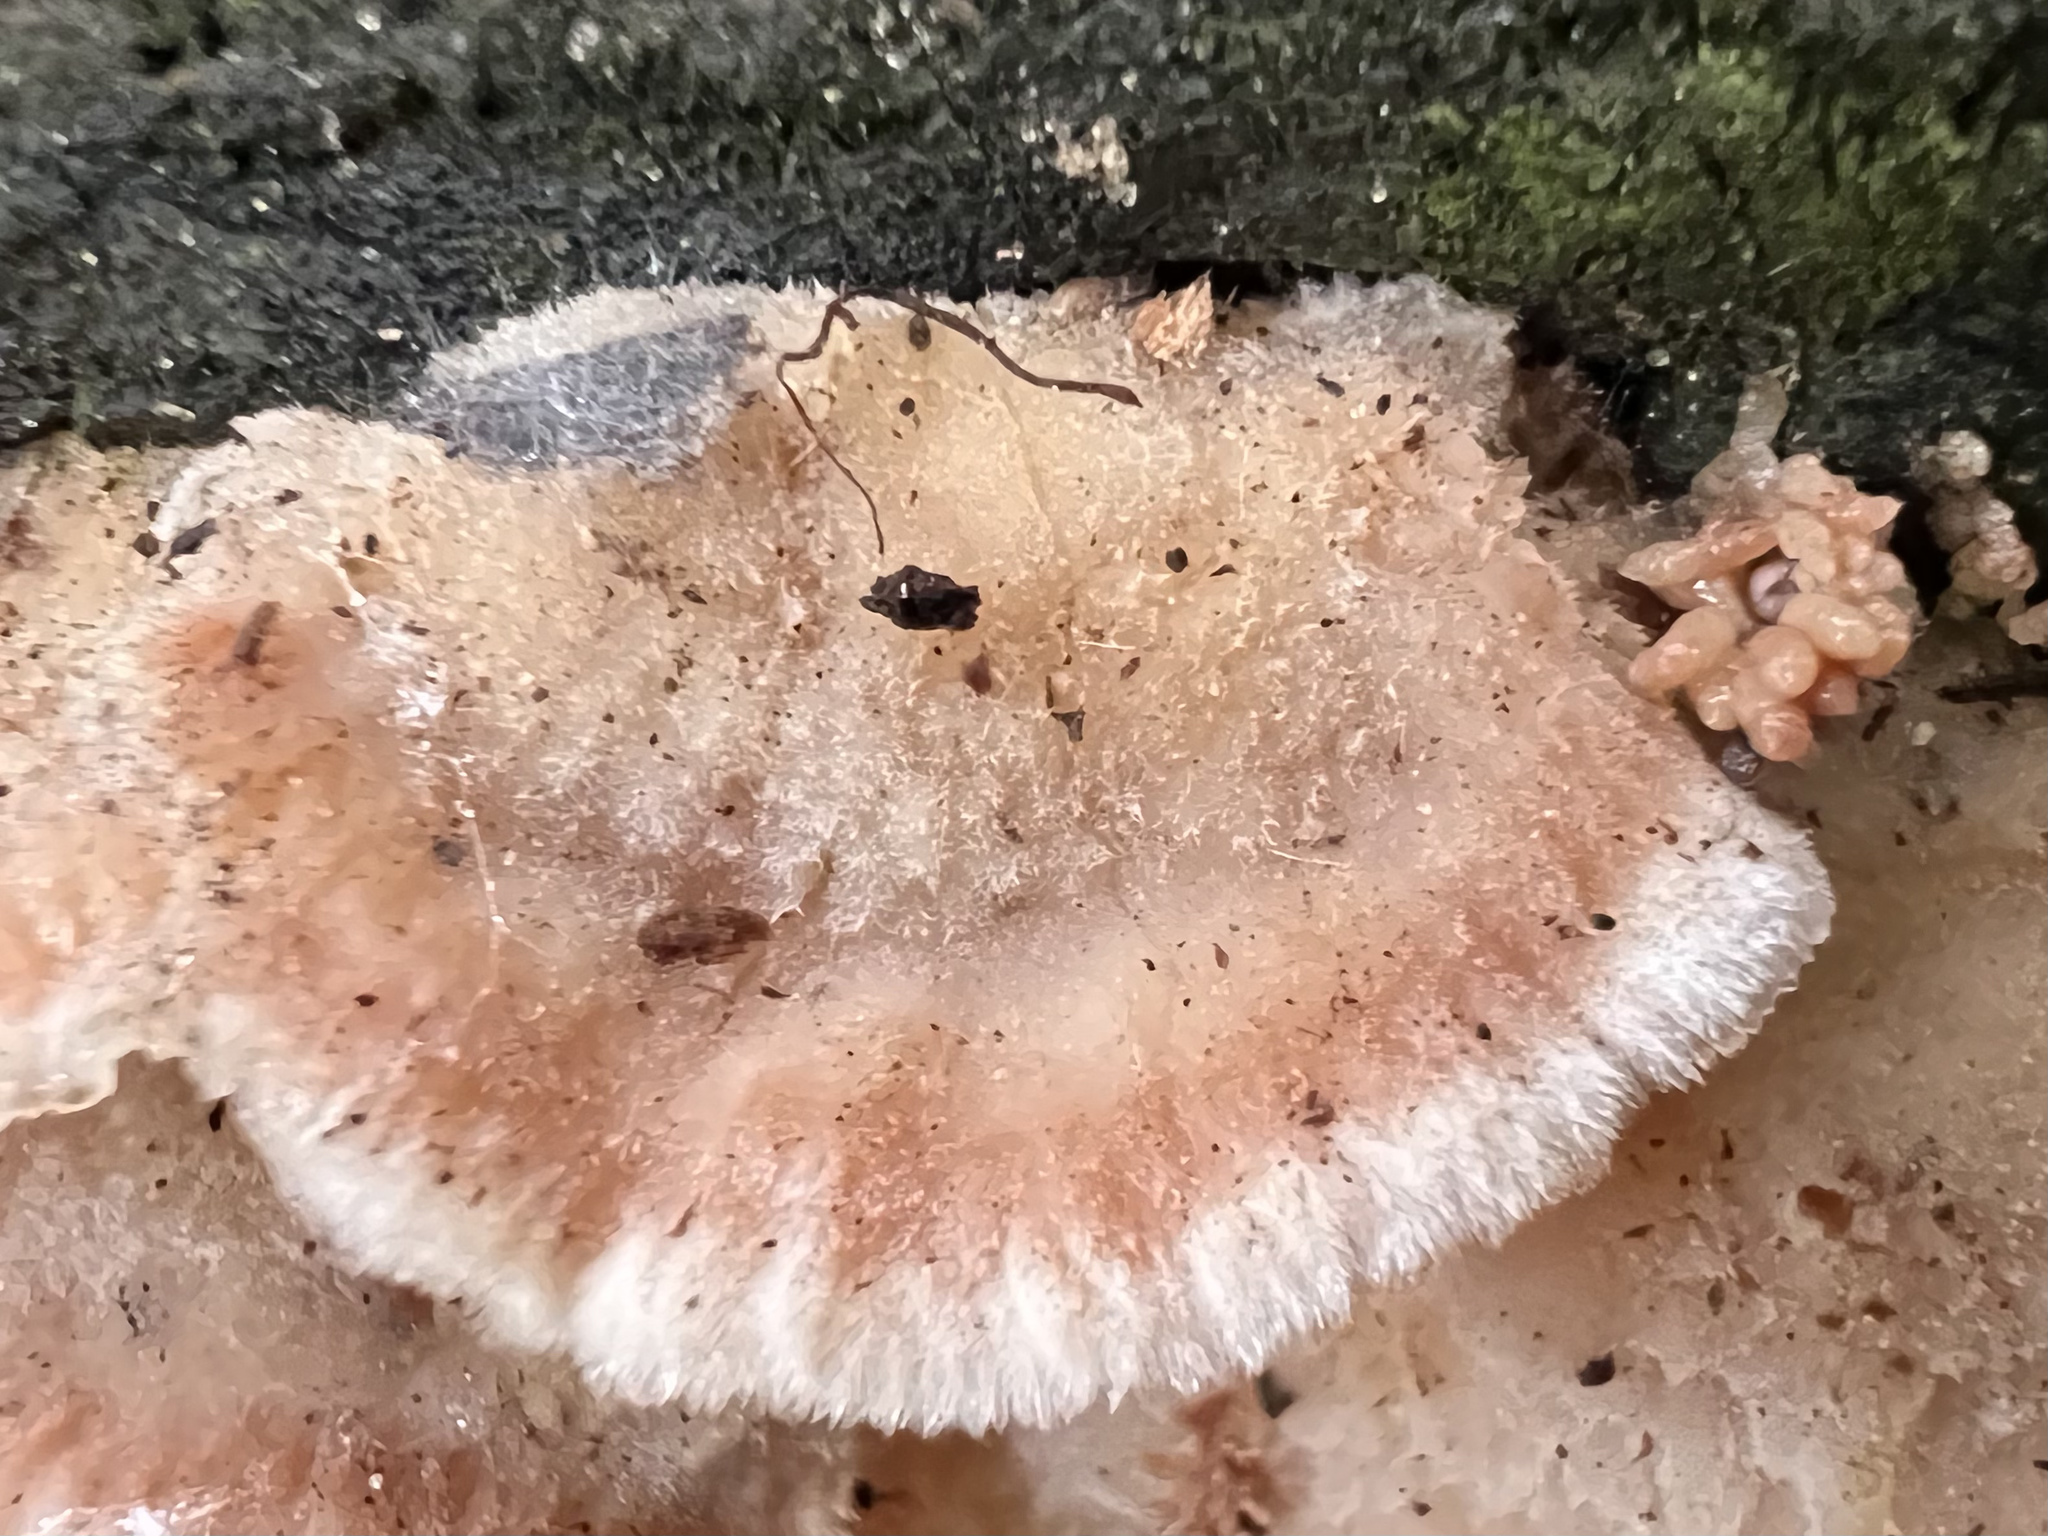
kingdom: Fungi
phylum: Basidiomycota
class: Agaricomycetes
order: Polyporales
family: Meruliaceae
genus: Phlebia
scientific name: Phlebia tremellosa
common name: Jelly rot
